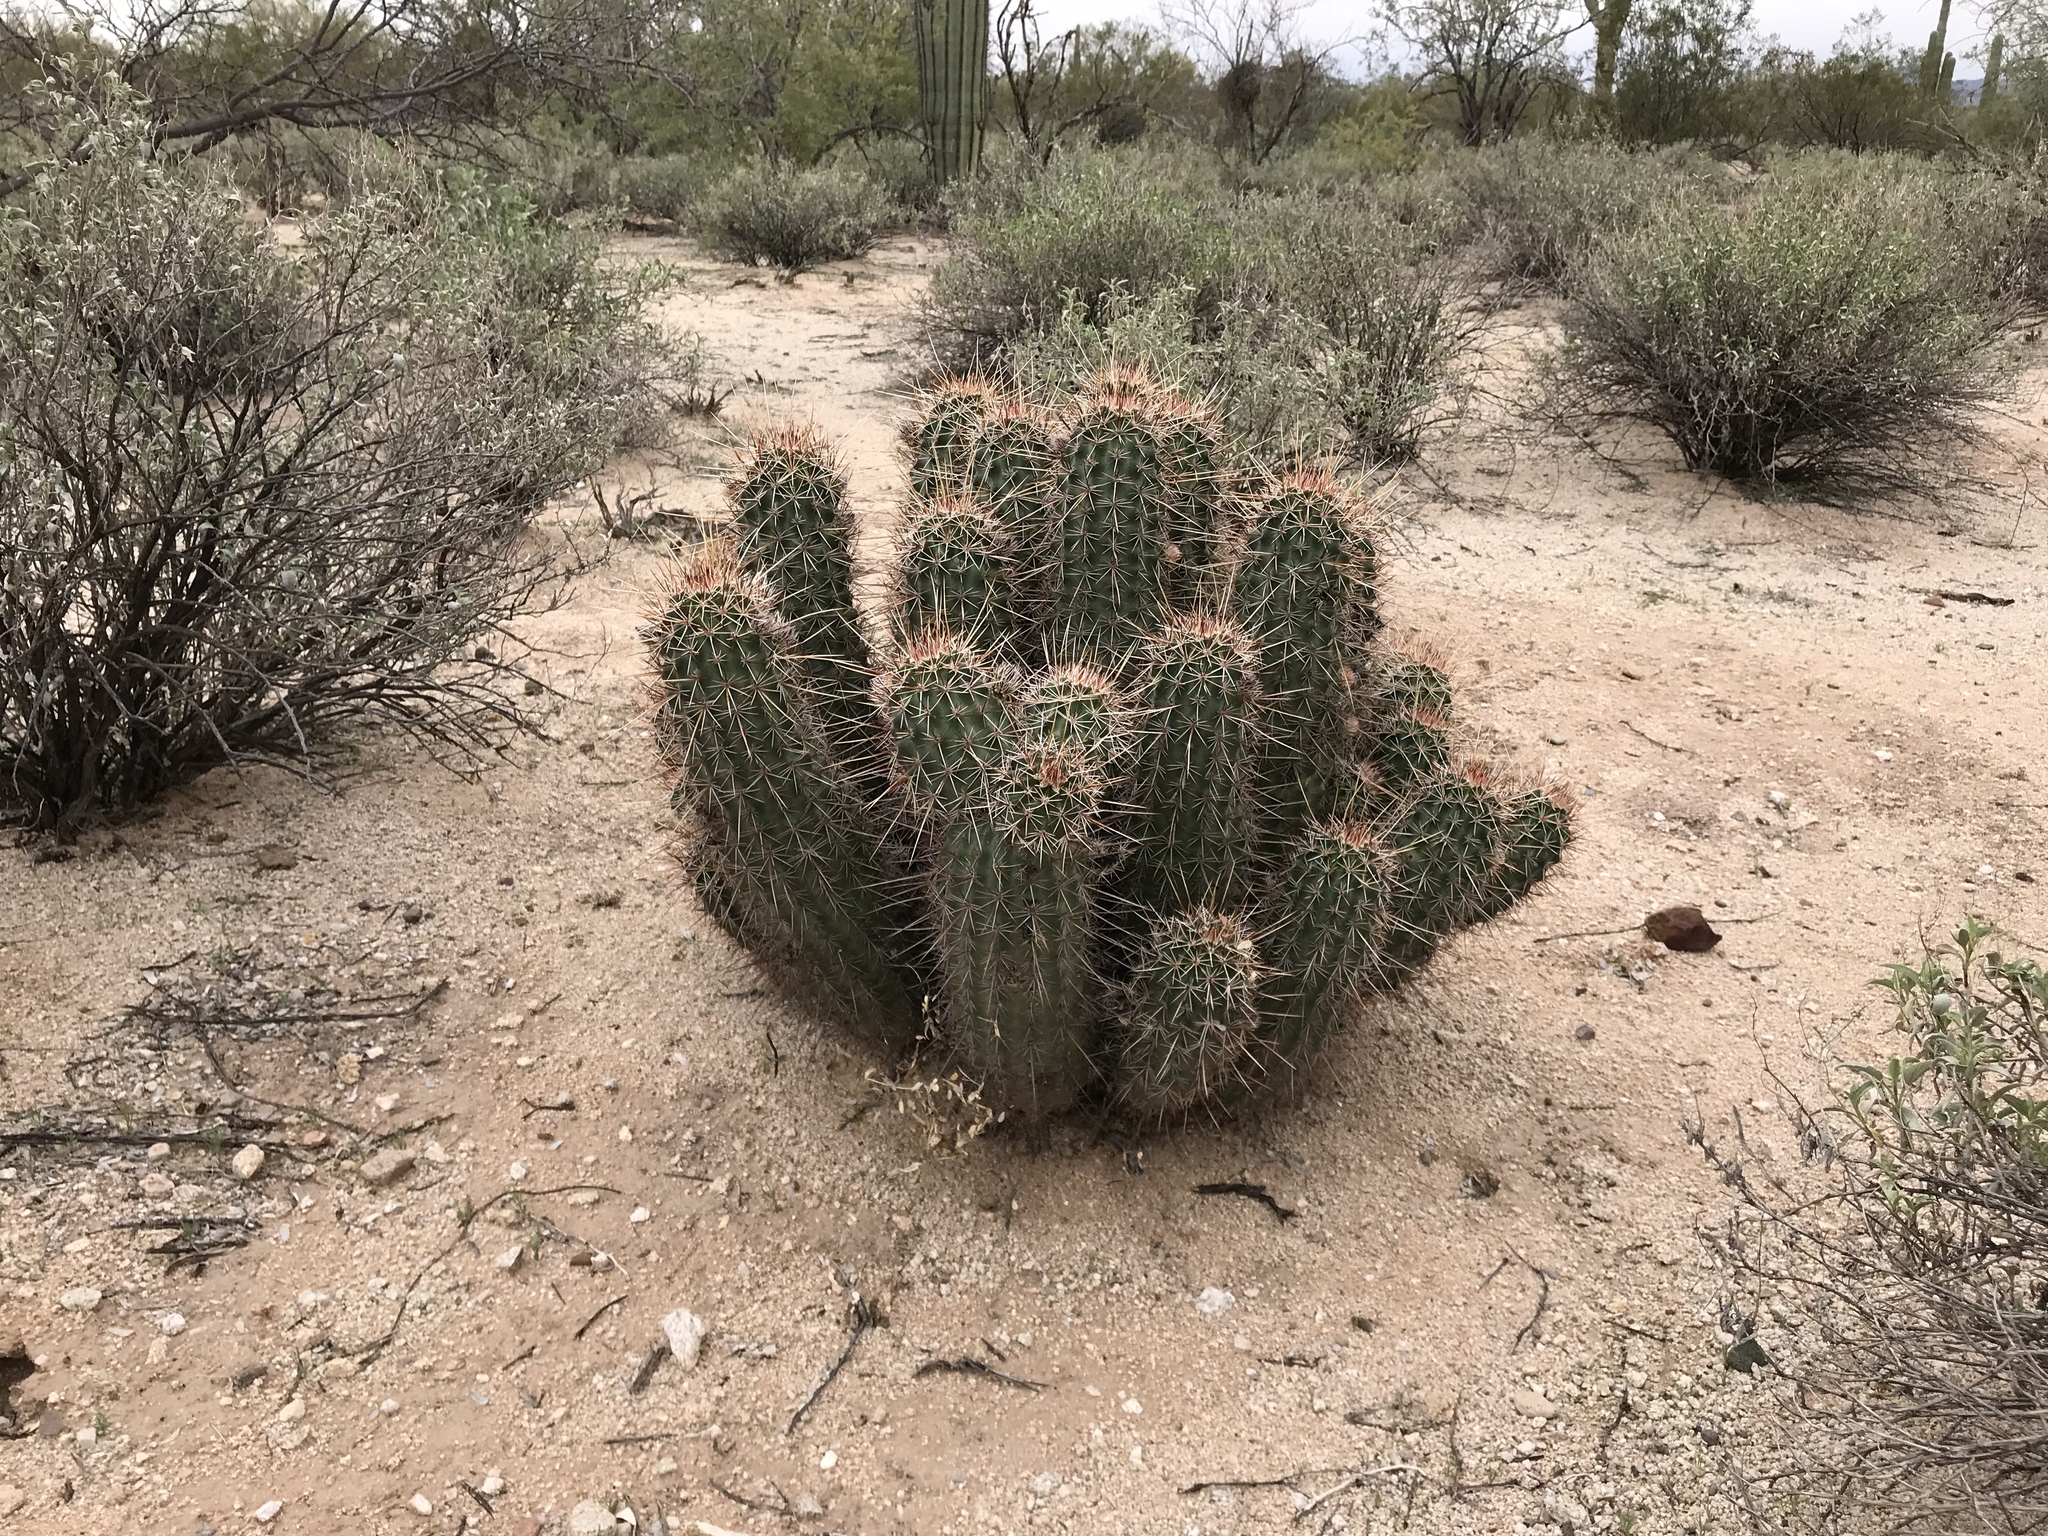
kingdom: Plantae
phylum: Tracheophyta
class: Magnoliopsida
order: Caryophyllales
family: Cactaceae
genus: Echinocereus
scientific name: Echinocereus fasciculatus
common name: Bundle hedgehog
